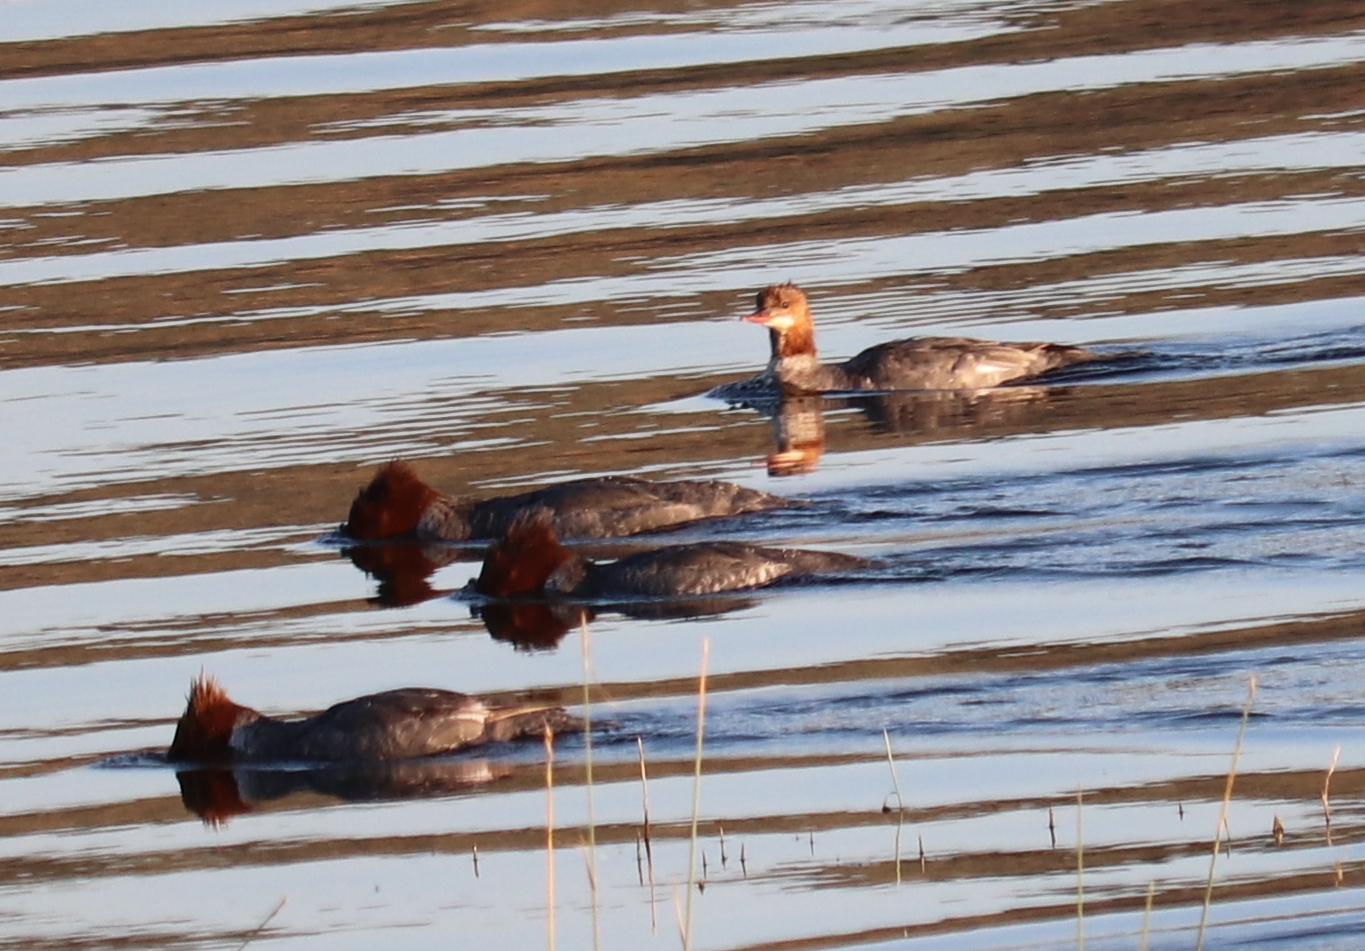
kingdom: Animalia
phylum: Chordata
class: Aves
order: Anseriformes
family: Anatidae
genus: Mergus
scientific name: Mergus merganser
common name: Common merganser
